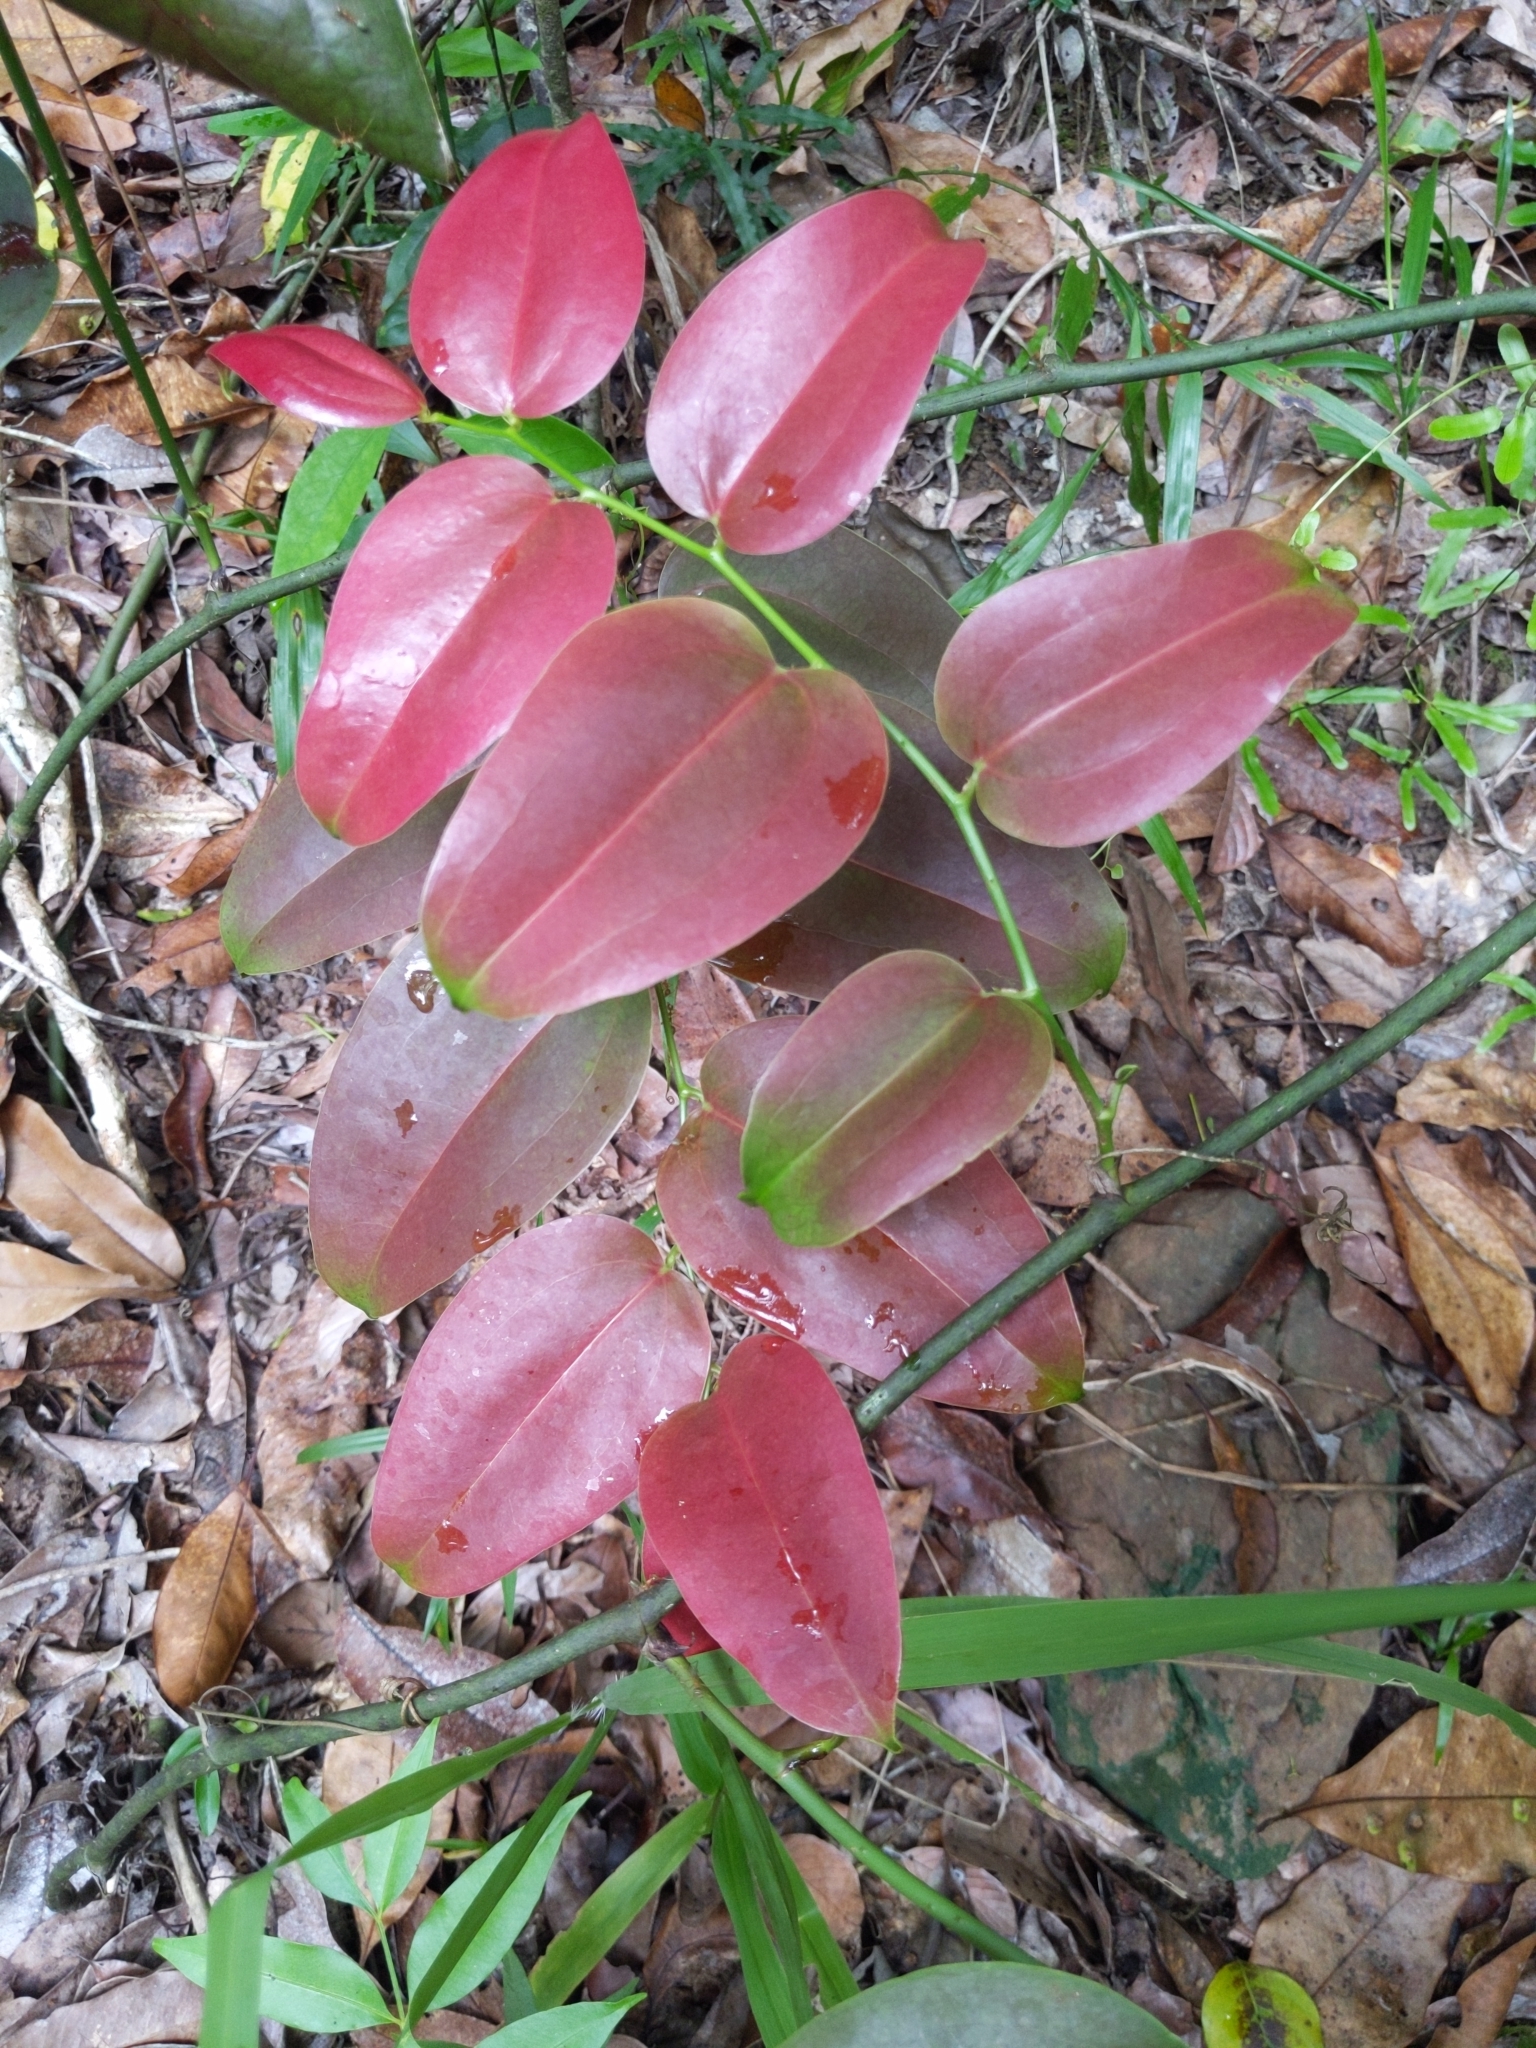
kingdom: Plantae
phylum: Tracheophyta
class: Liliopsida
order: Liliales
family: Smilacaceae
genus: Smilax
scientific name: Smilax australis
